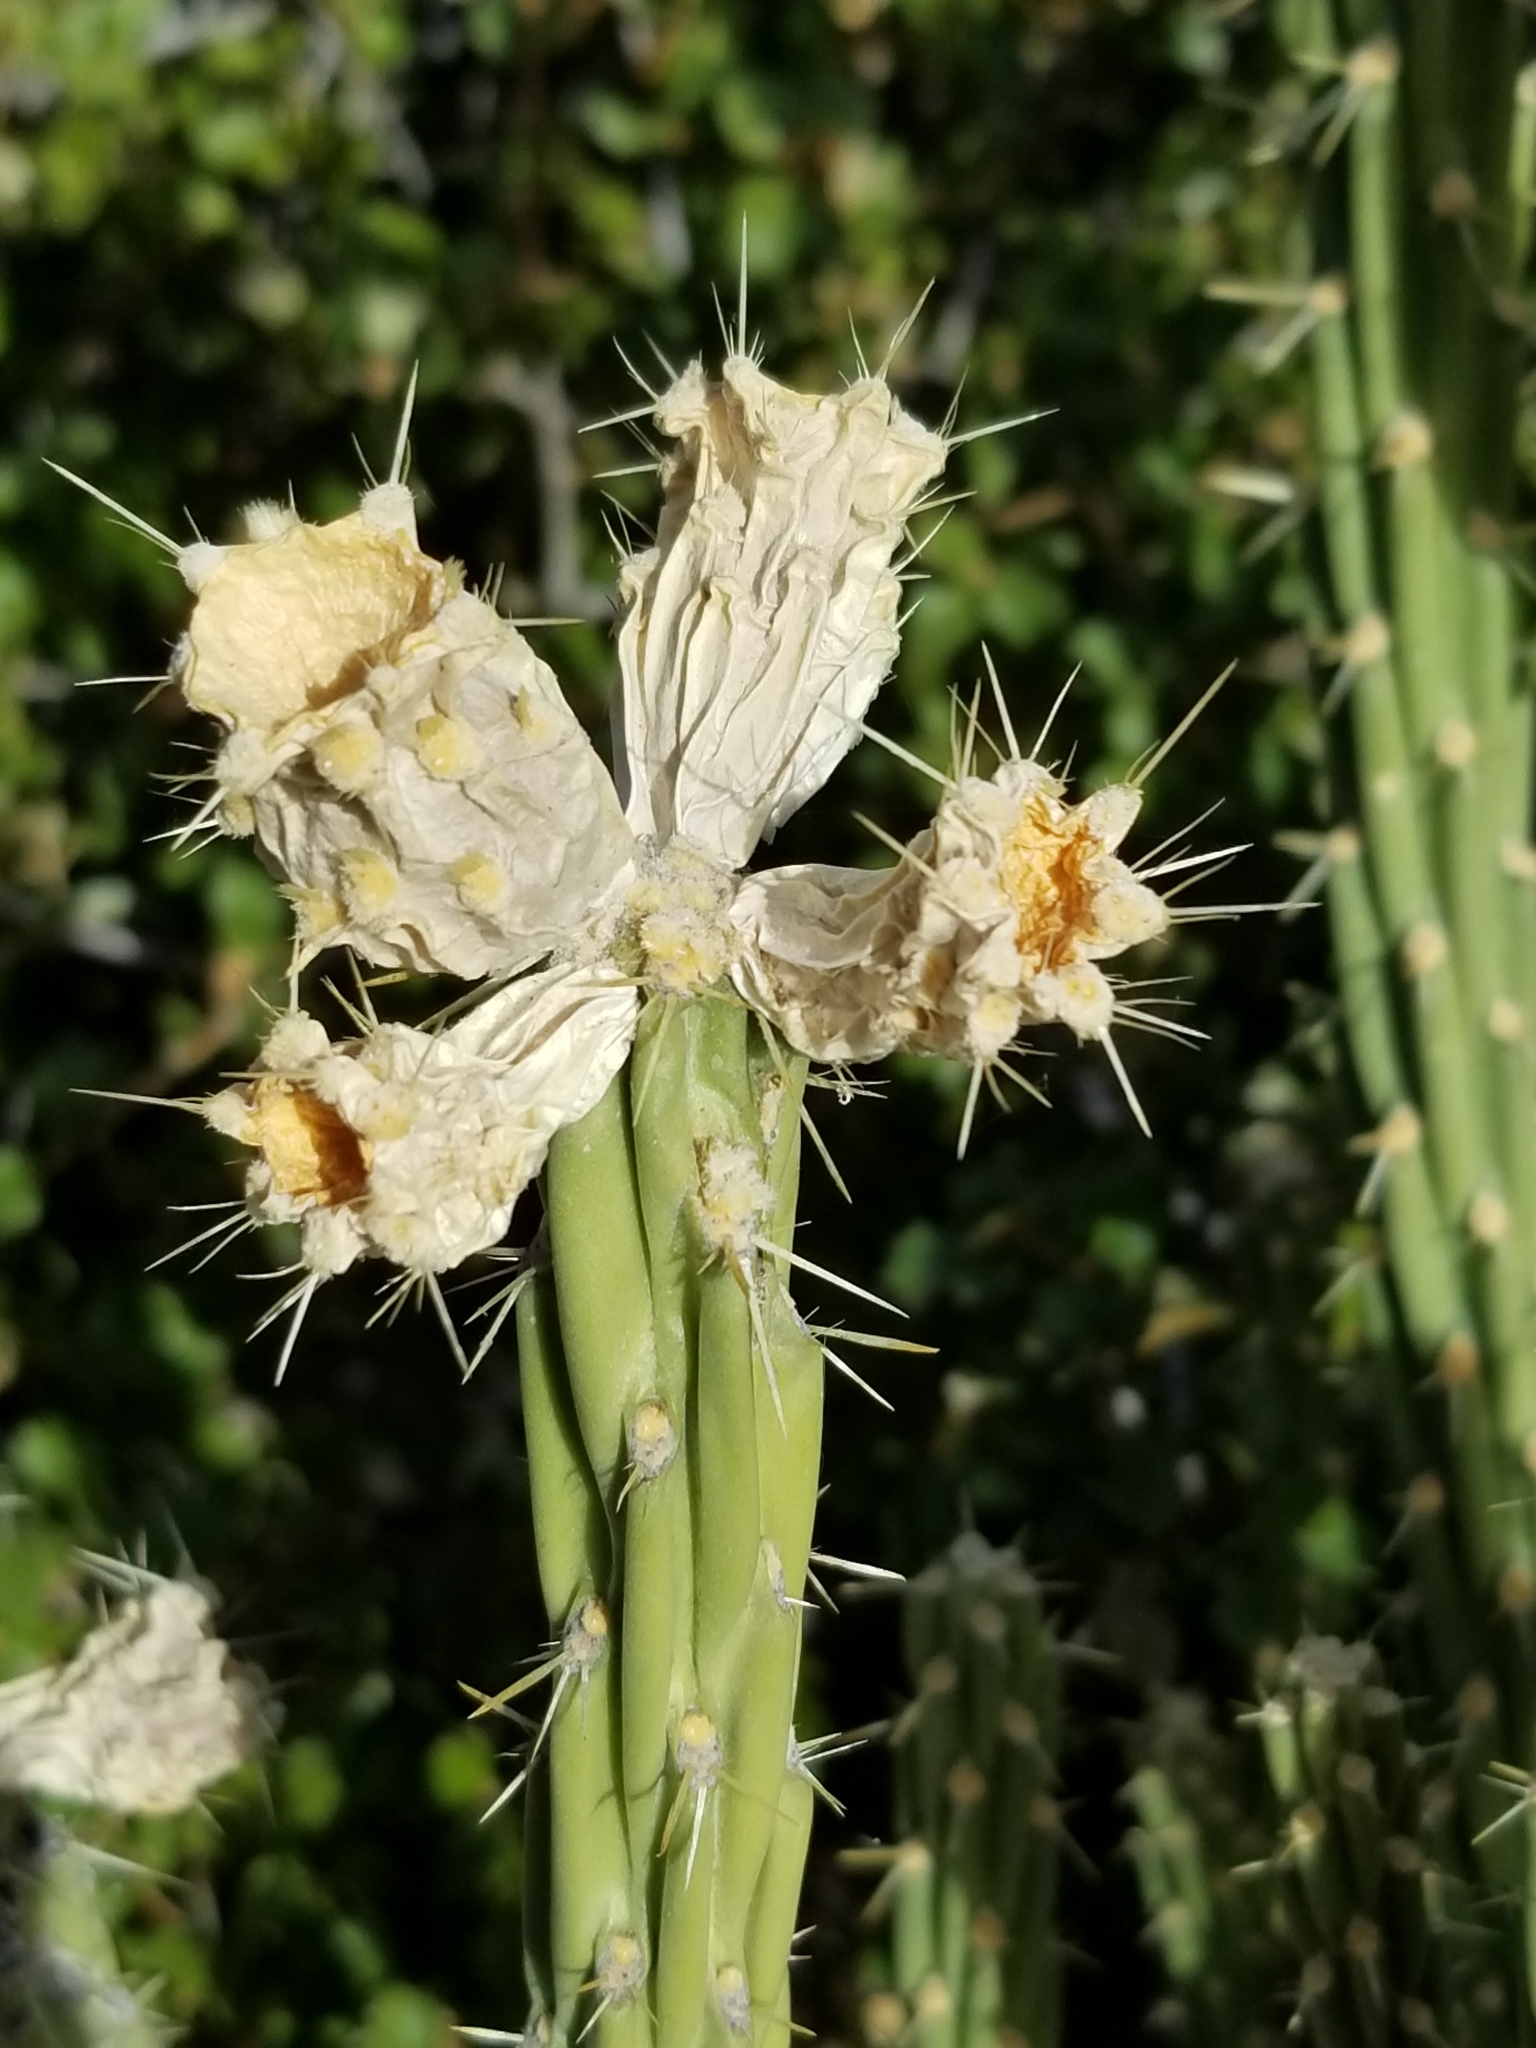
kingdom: Plantae
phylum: Tracheophyta
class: Magnoliopsida
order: Caryophyllales
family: Cactaceae
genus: Cylindropuntia
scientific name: Cylindropuntia bernardina
